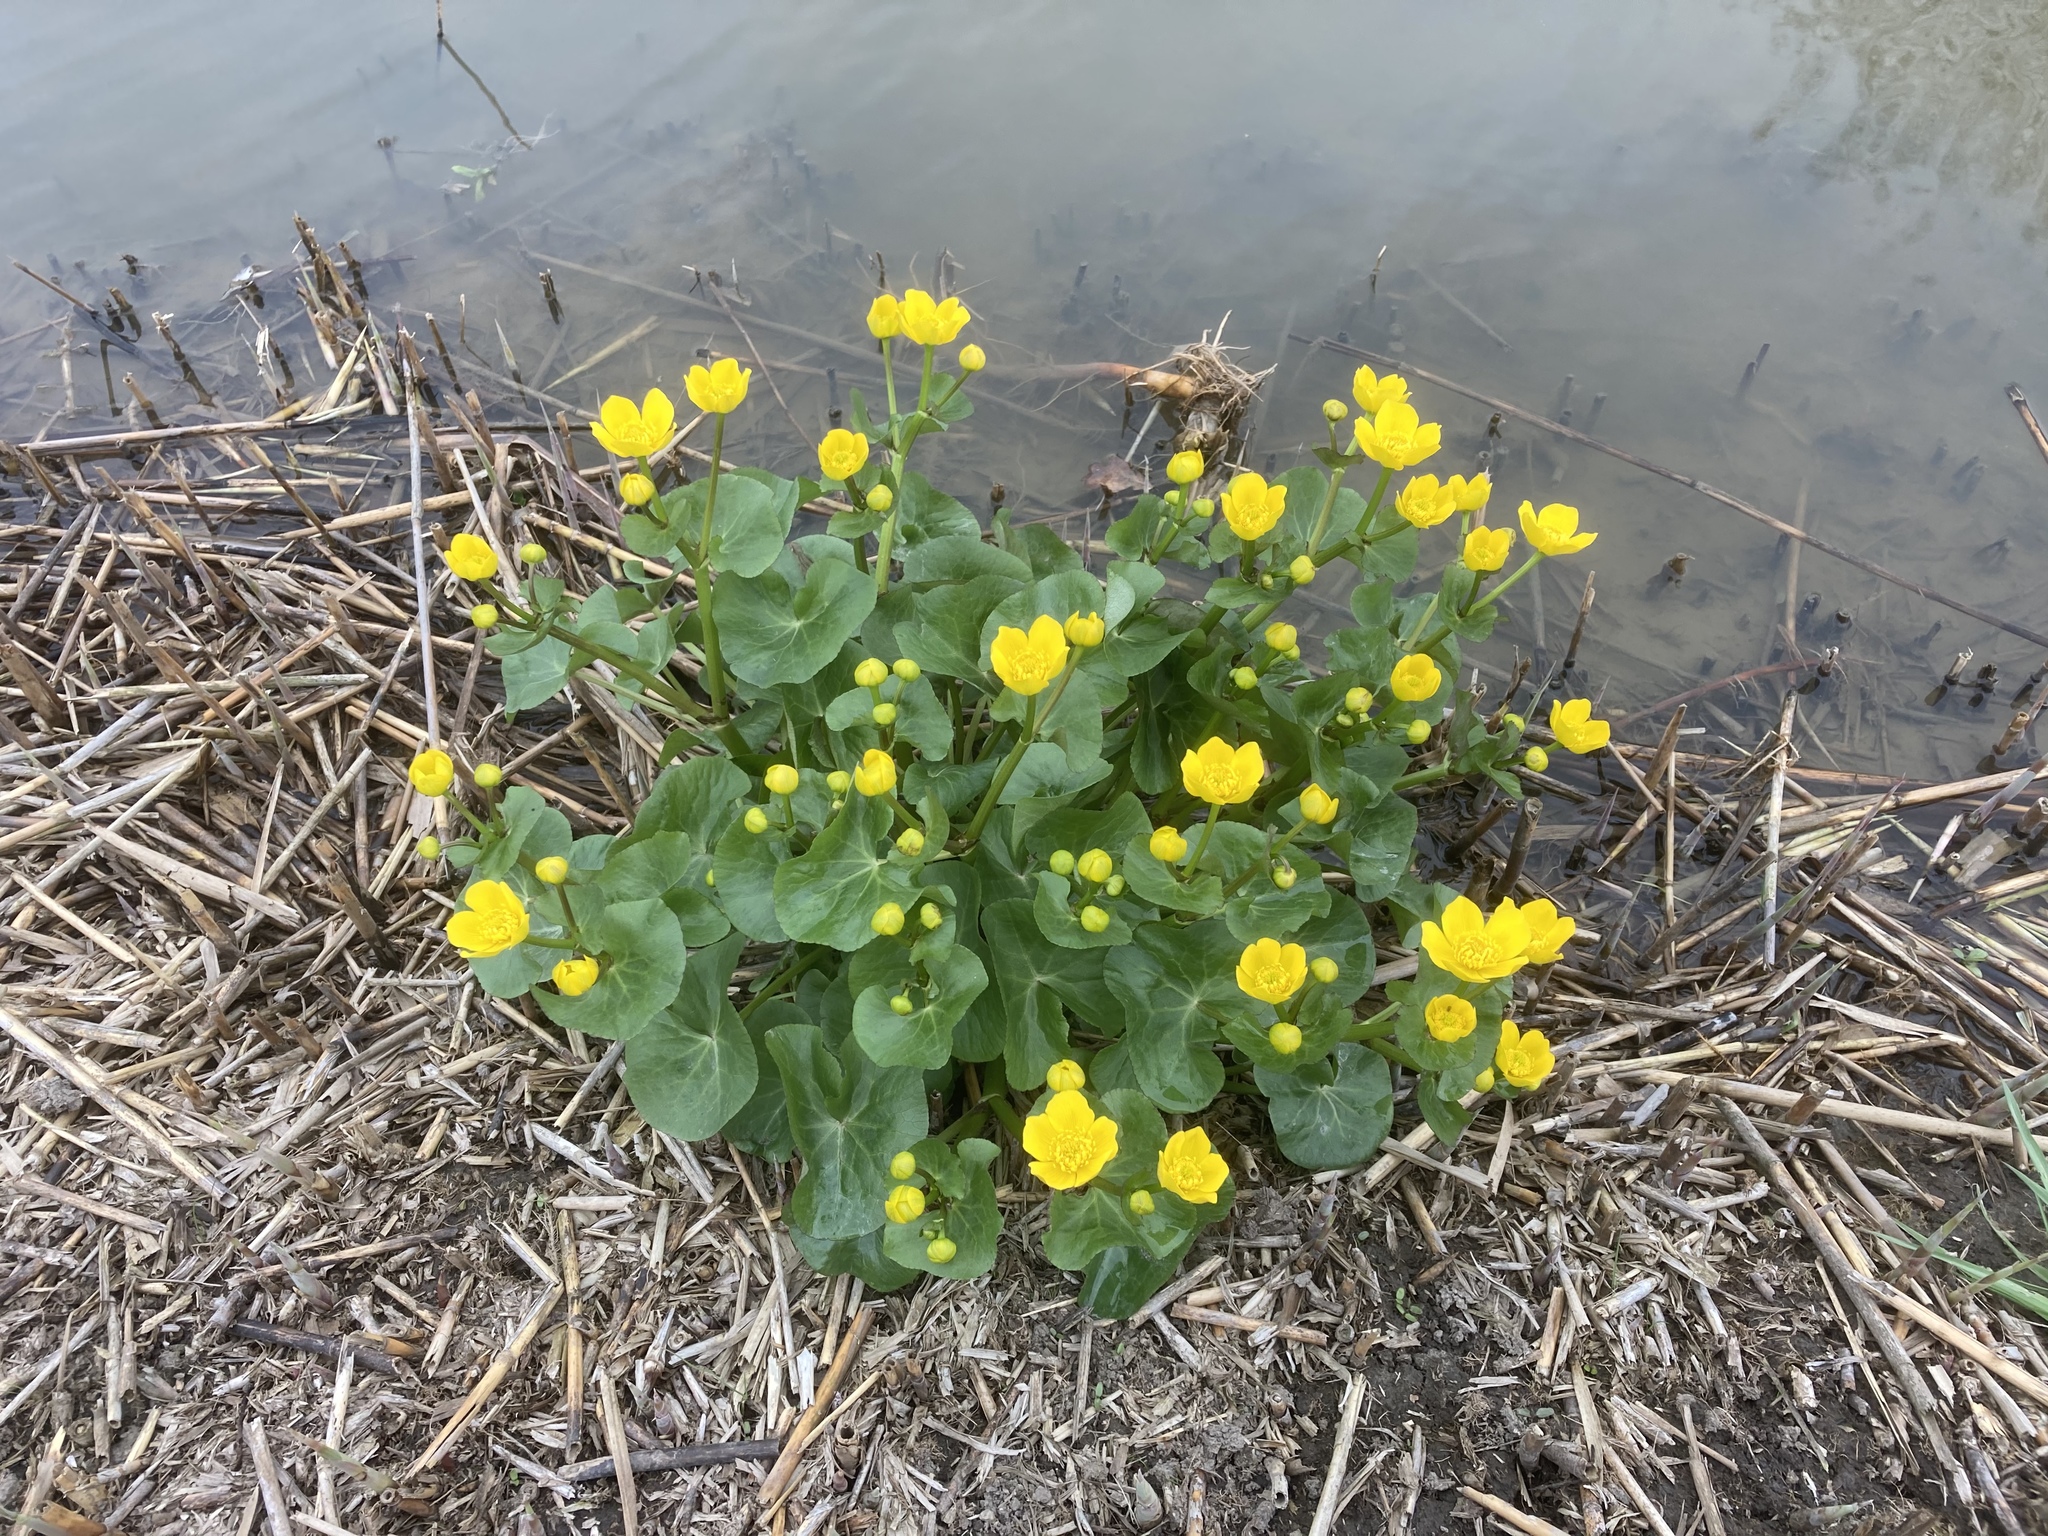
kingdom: Plantae
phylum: Tracheophyta
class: Magnoliopsida
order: Ranunculales
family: Ranunculaceae
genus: Caltha
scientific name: Caltha palustris
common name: Marsh marigold
